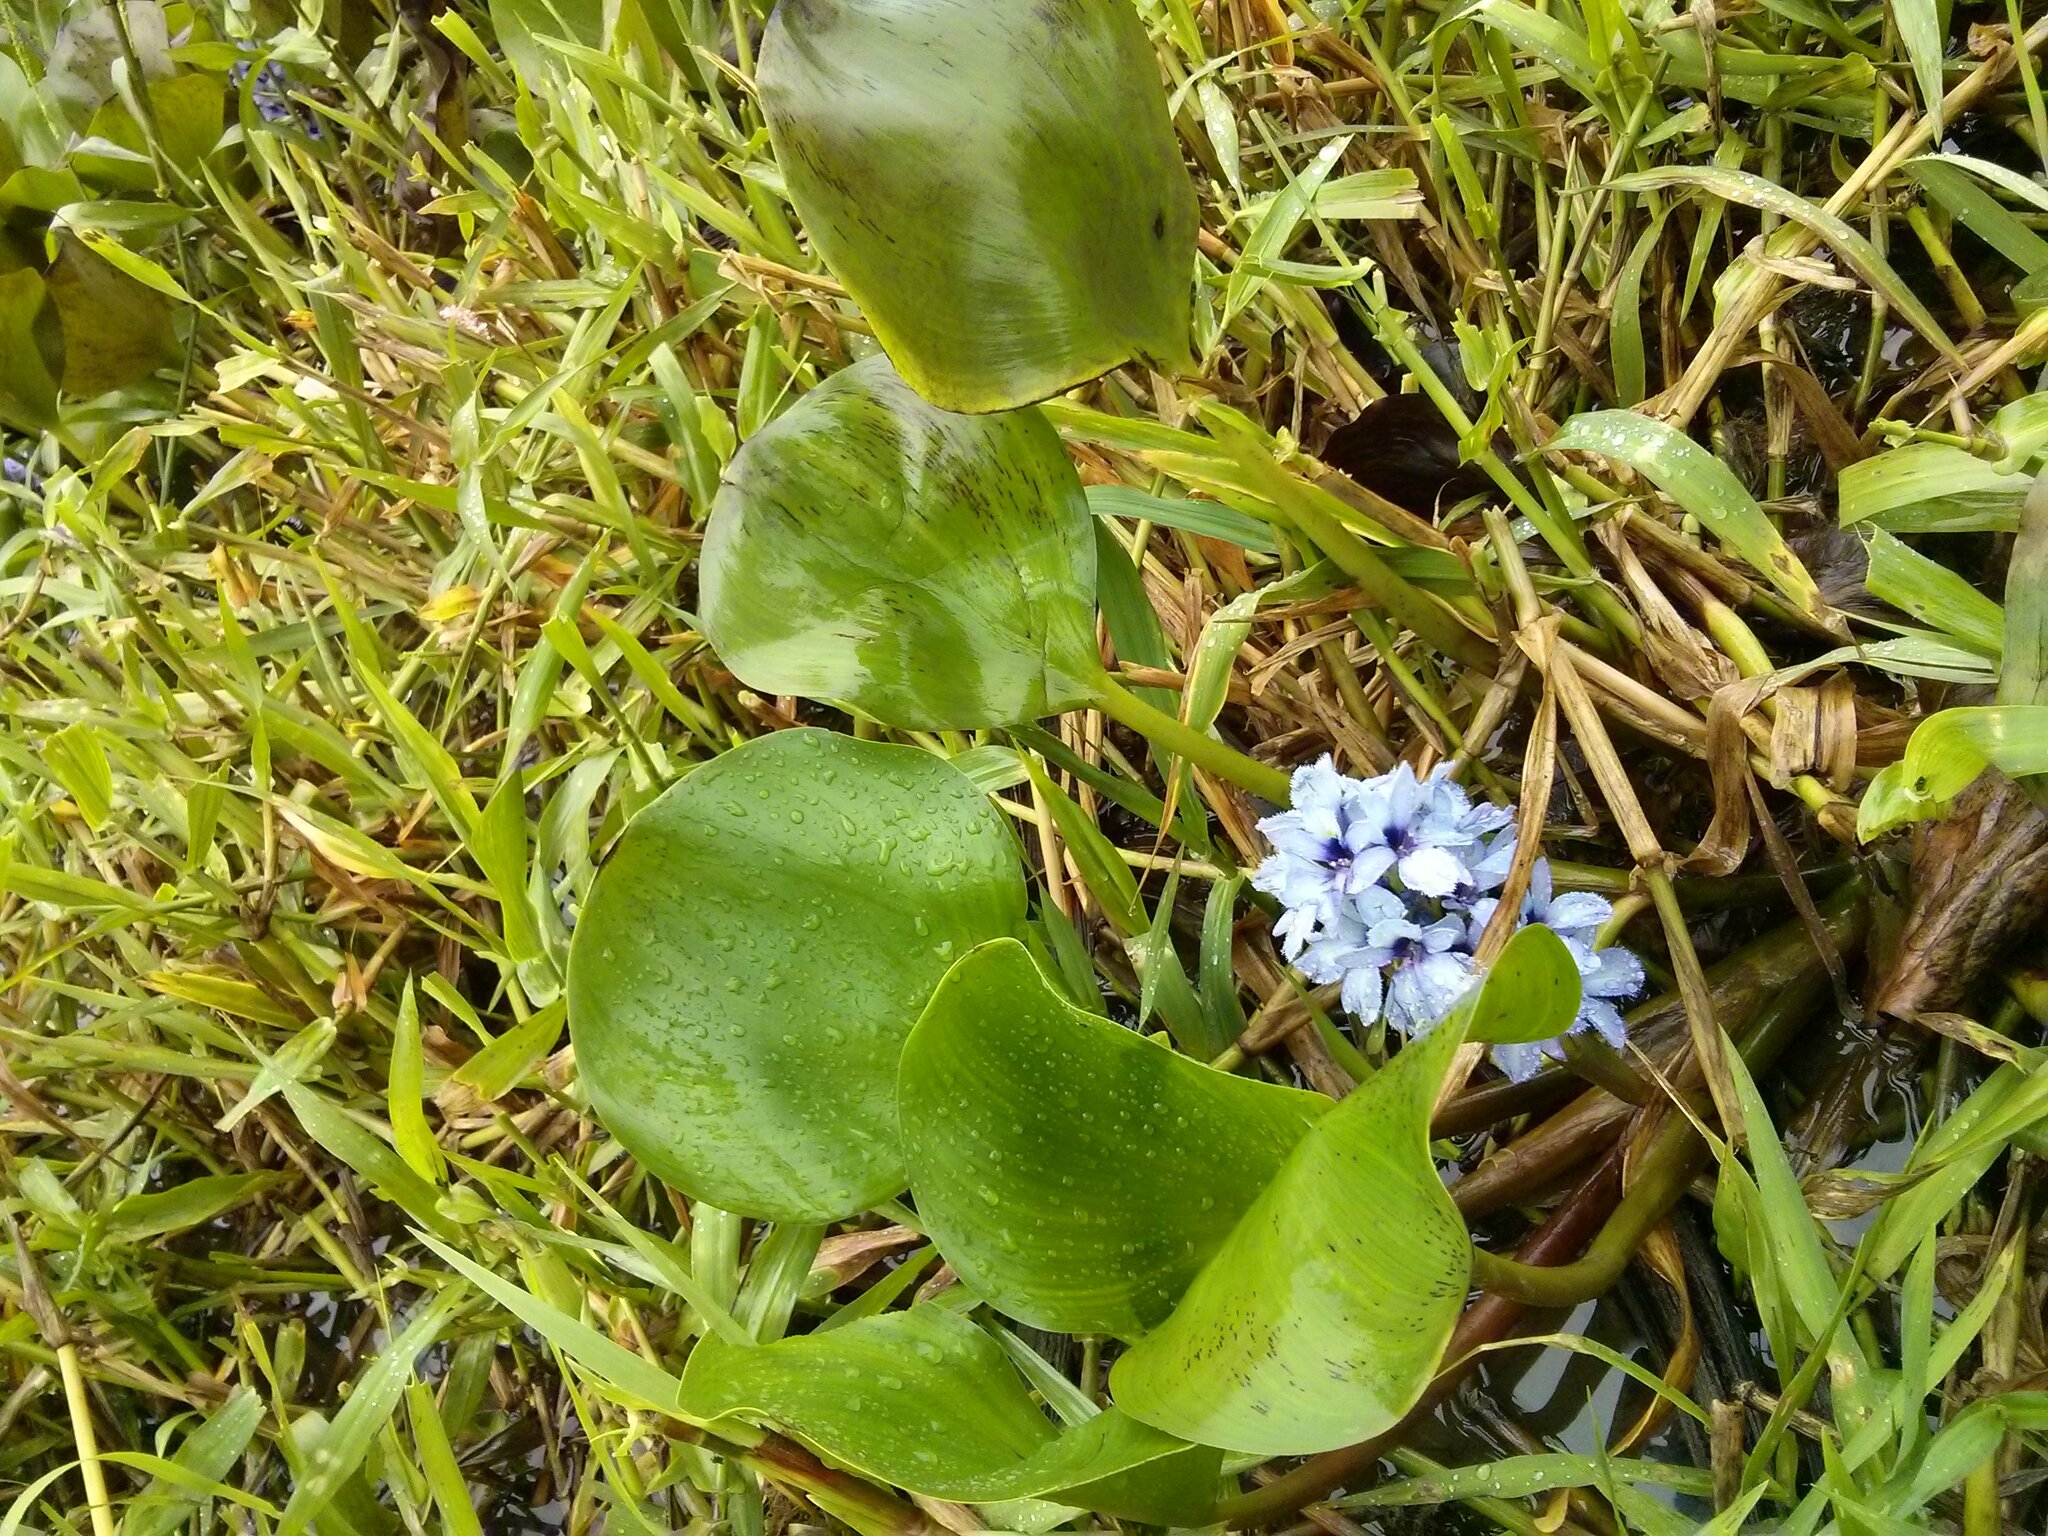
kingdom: Plantae
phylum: Tracheophyta
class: Liliopsida
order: Commelinales
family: Pontederiaceae
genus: Pontederia
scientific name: Pontederia azurea
